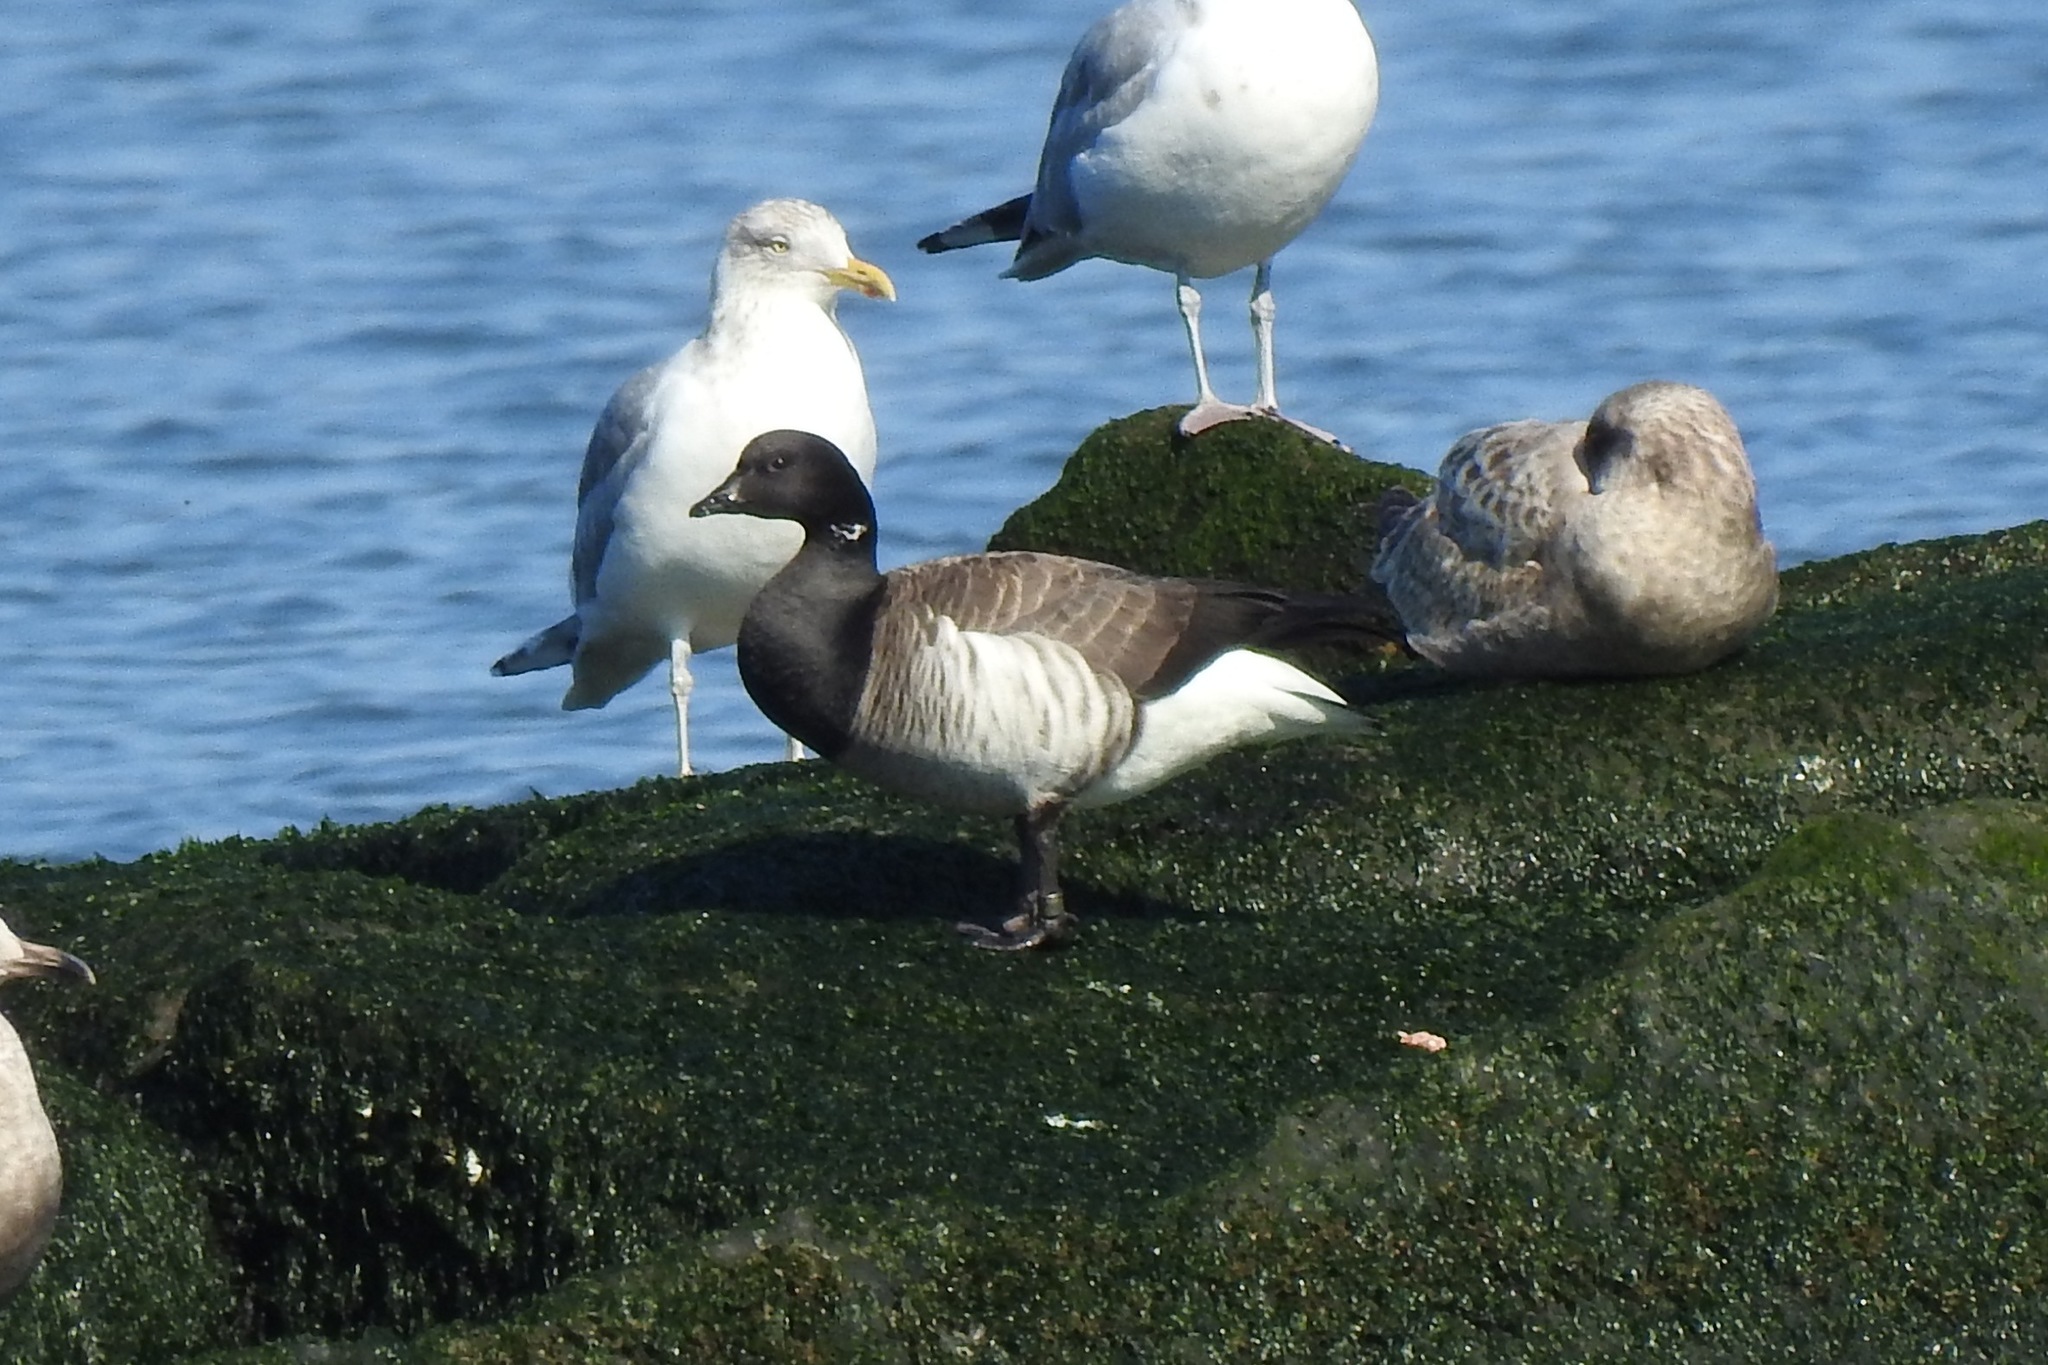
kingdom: Animalia
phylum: Chordata
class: Aves
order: Anseriformes
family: Anatidae
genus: Branta
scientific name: Branta bernicla
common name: Brant goose
